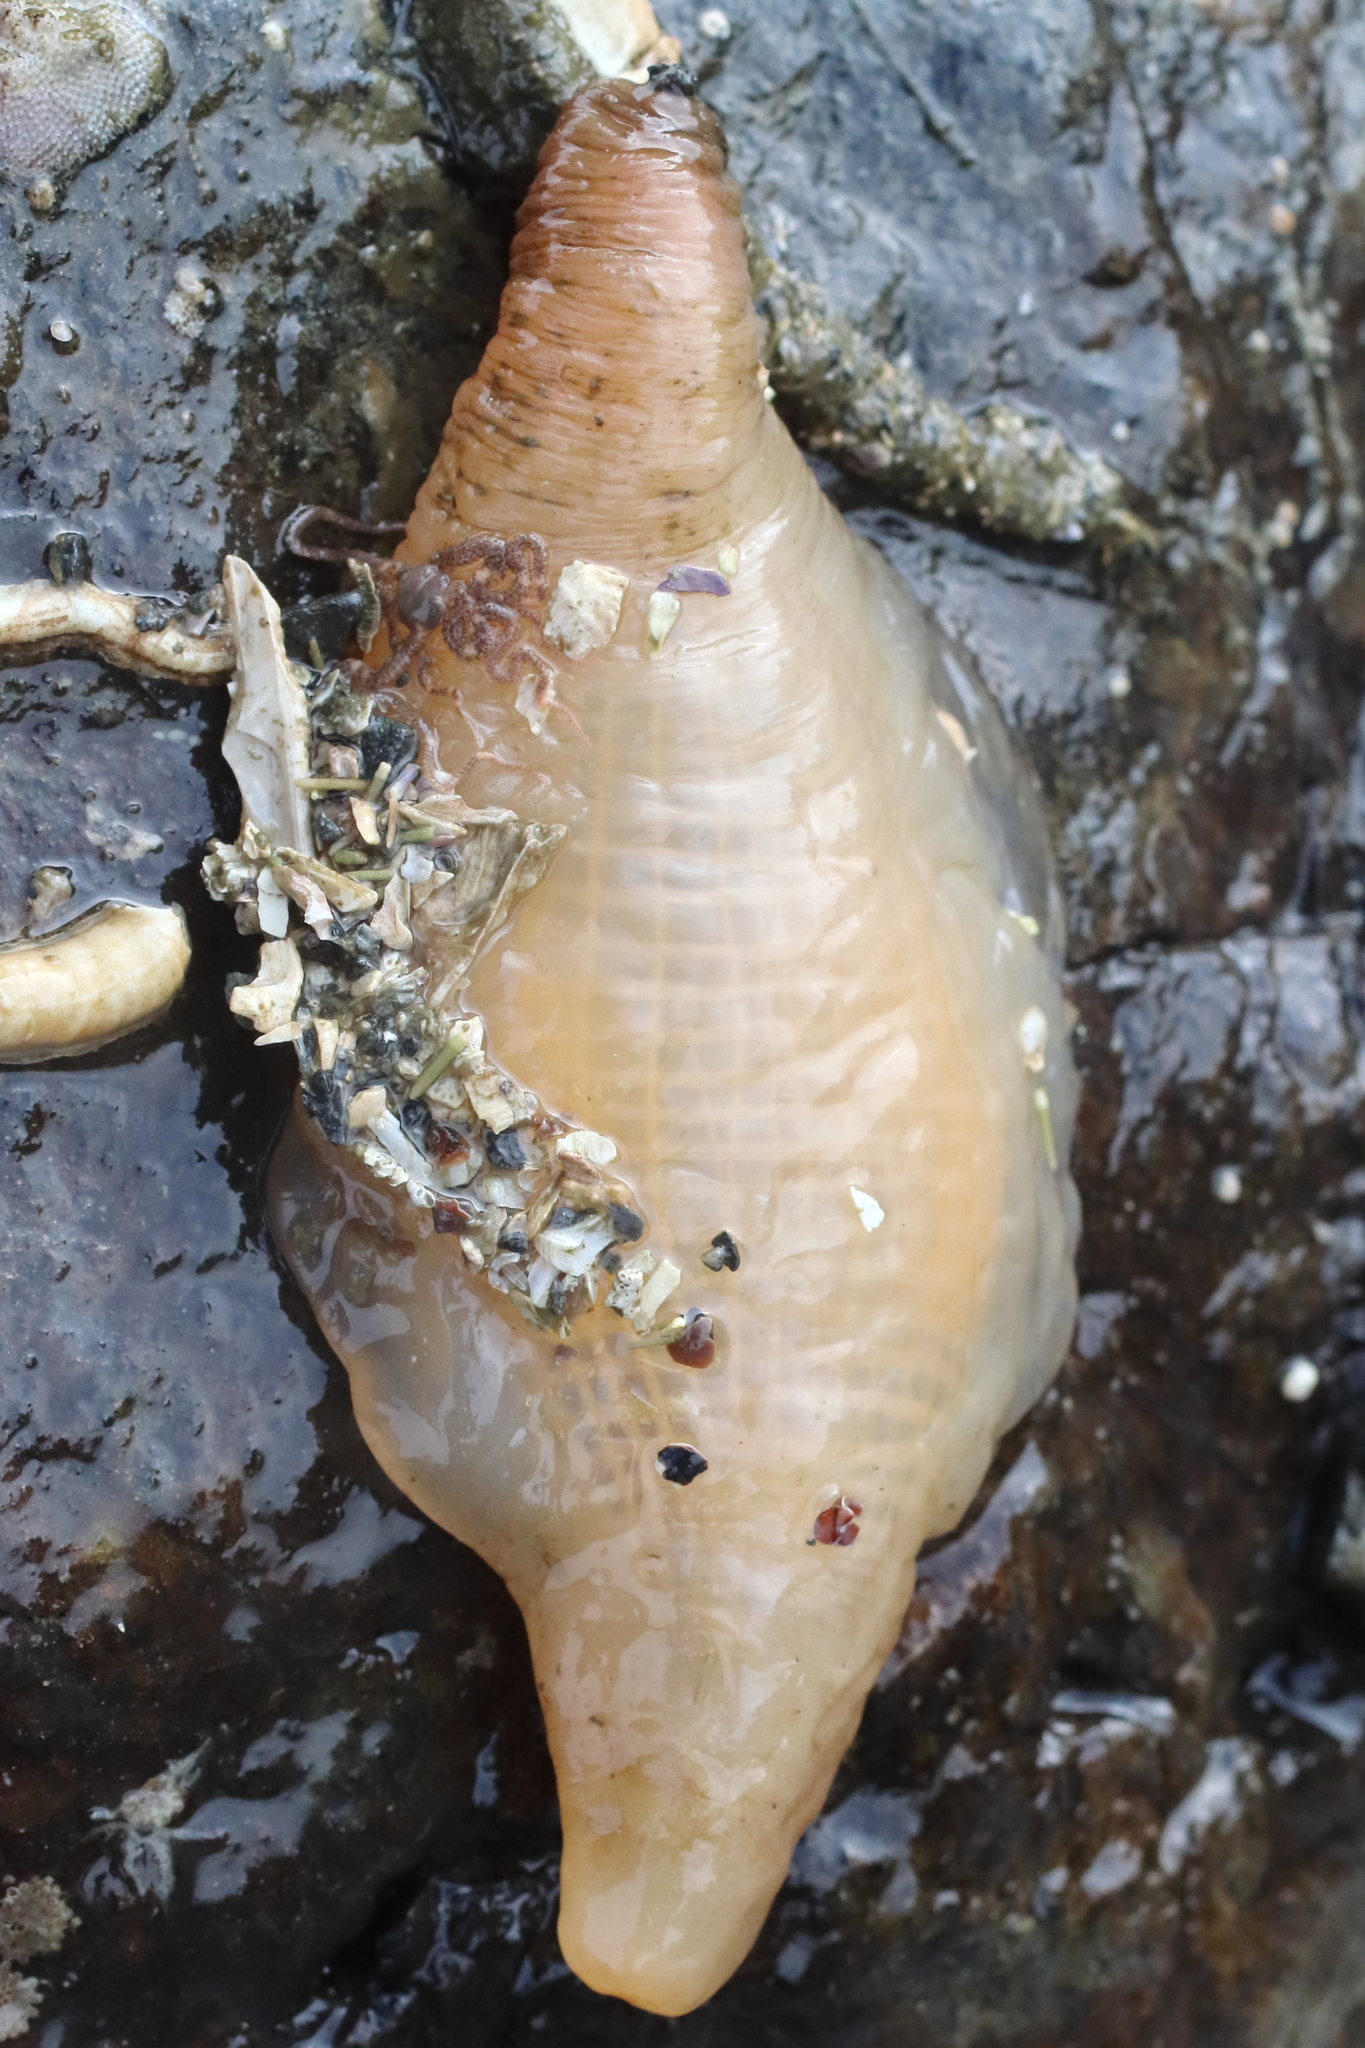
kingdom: Animalia
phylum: Chordata
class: Ascidiacea
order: Stolidobranchia
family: Pyuridae
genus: Pyura
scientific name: Pyura mirabilis
